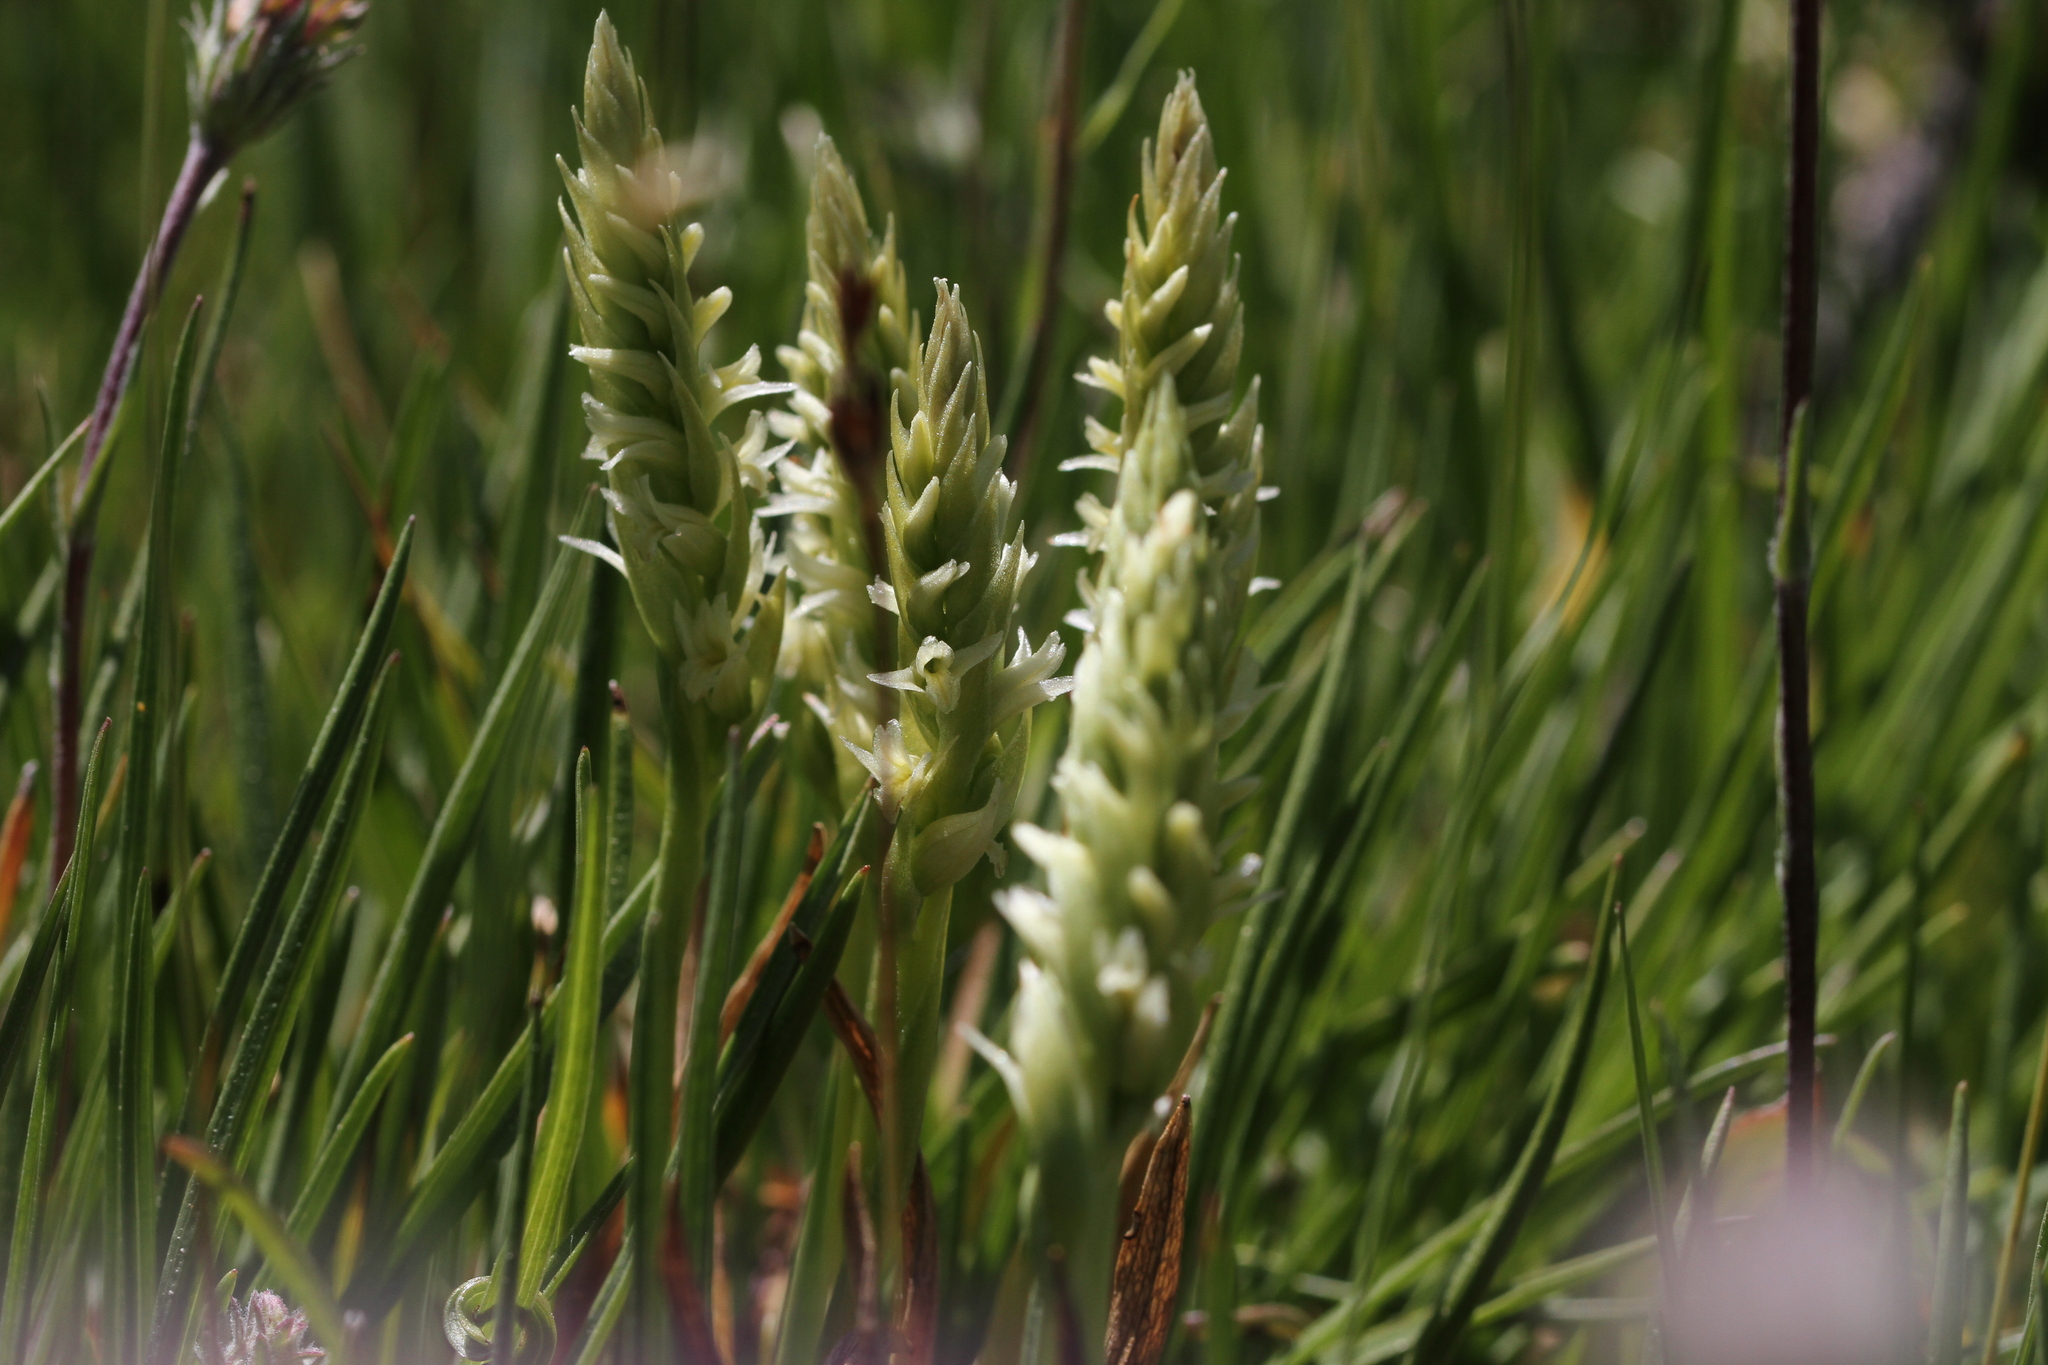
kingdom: Plantae
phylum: Tracheophyta
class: Liliopsida
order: Asparagales
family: Orchidaceae
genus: Spiranthes
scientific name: Spiranthes stellata
